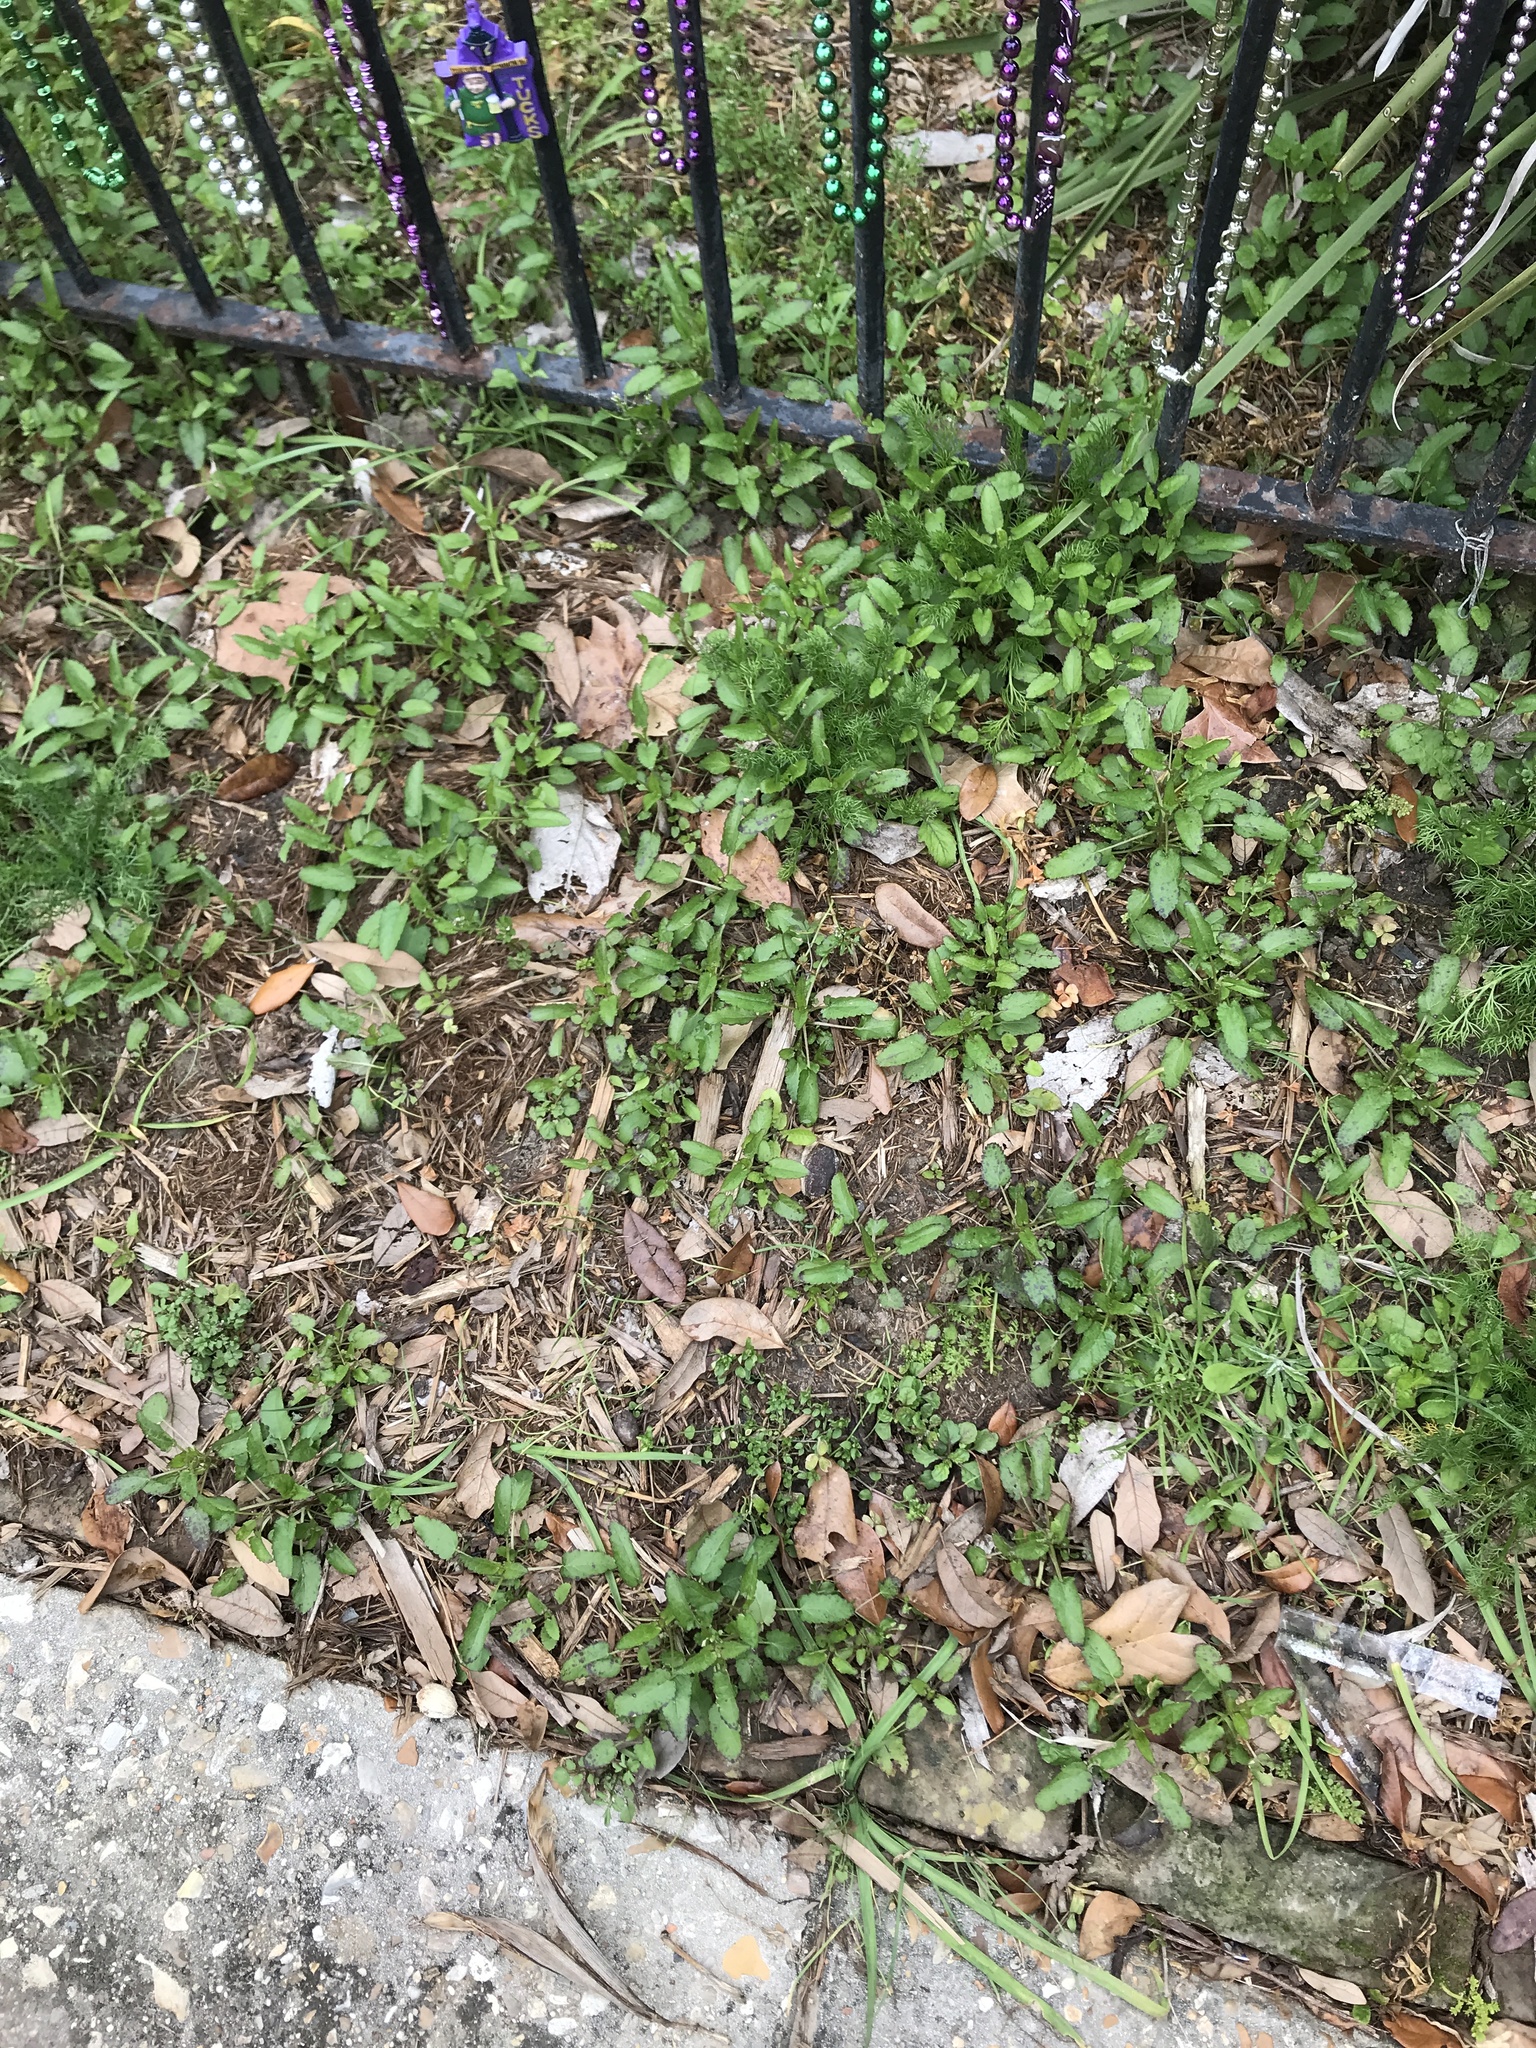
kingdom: Plantae
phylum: Tracheophyta
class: Magnoliopsida
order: Lamiales
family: Lamiaceae
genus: Stachys
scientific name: Stachys floridana
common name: Florida betony
